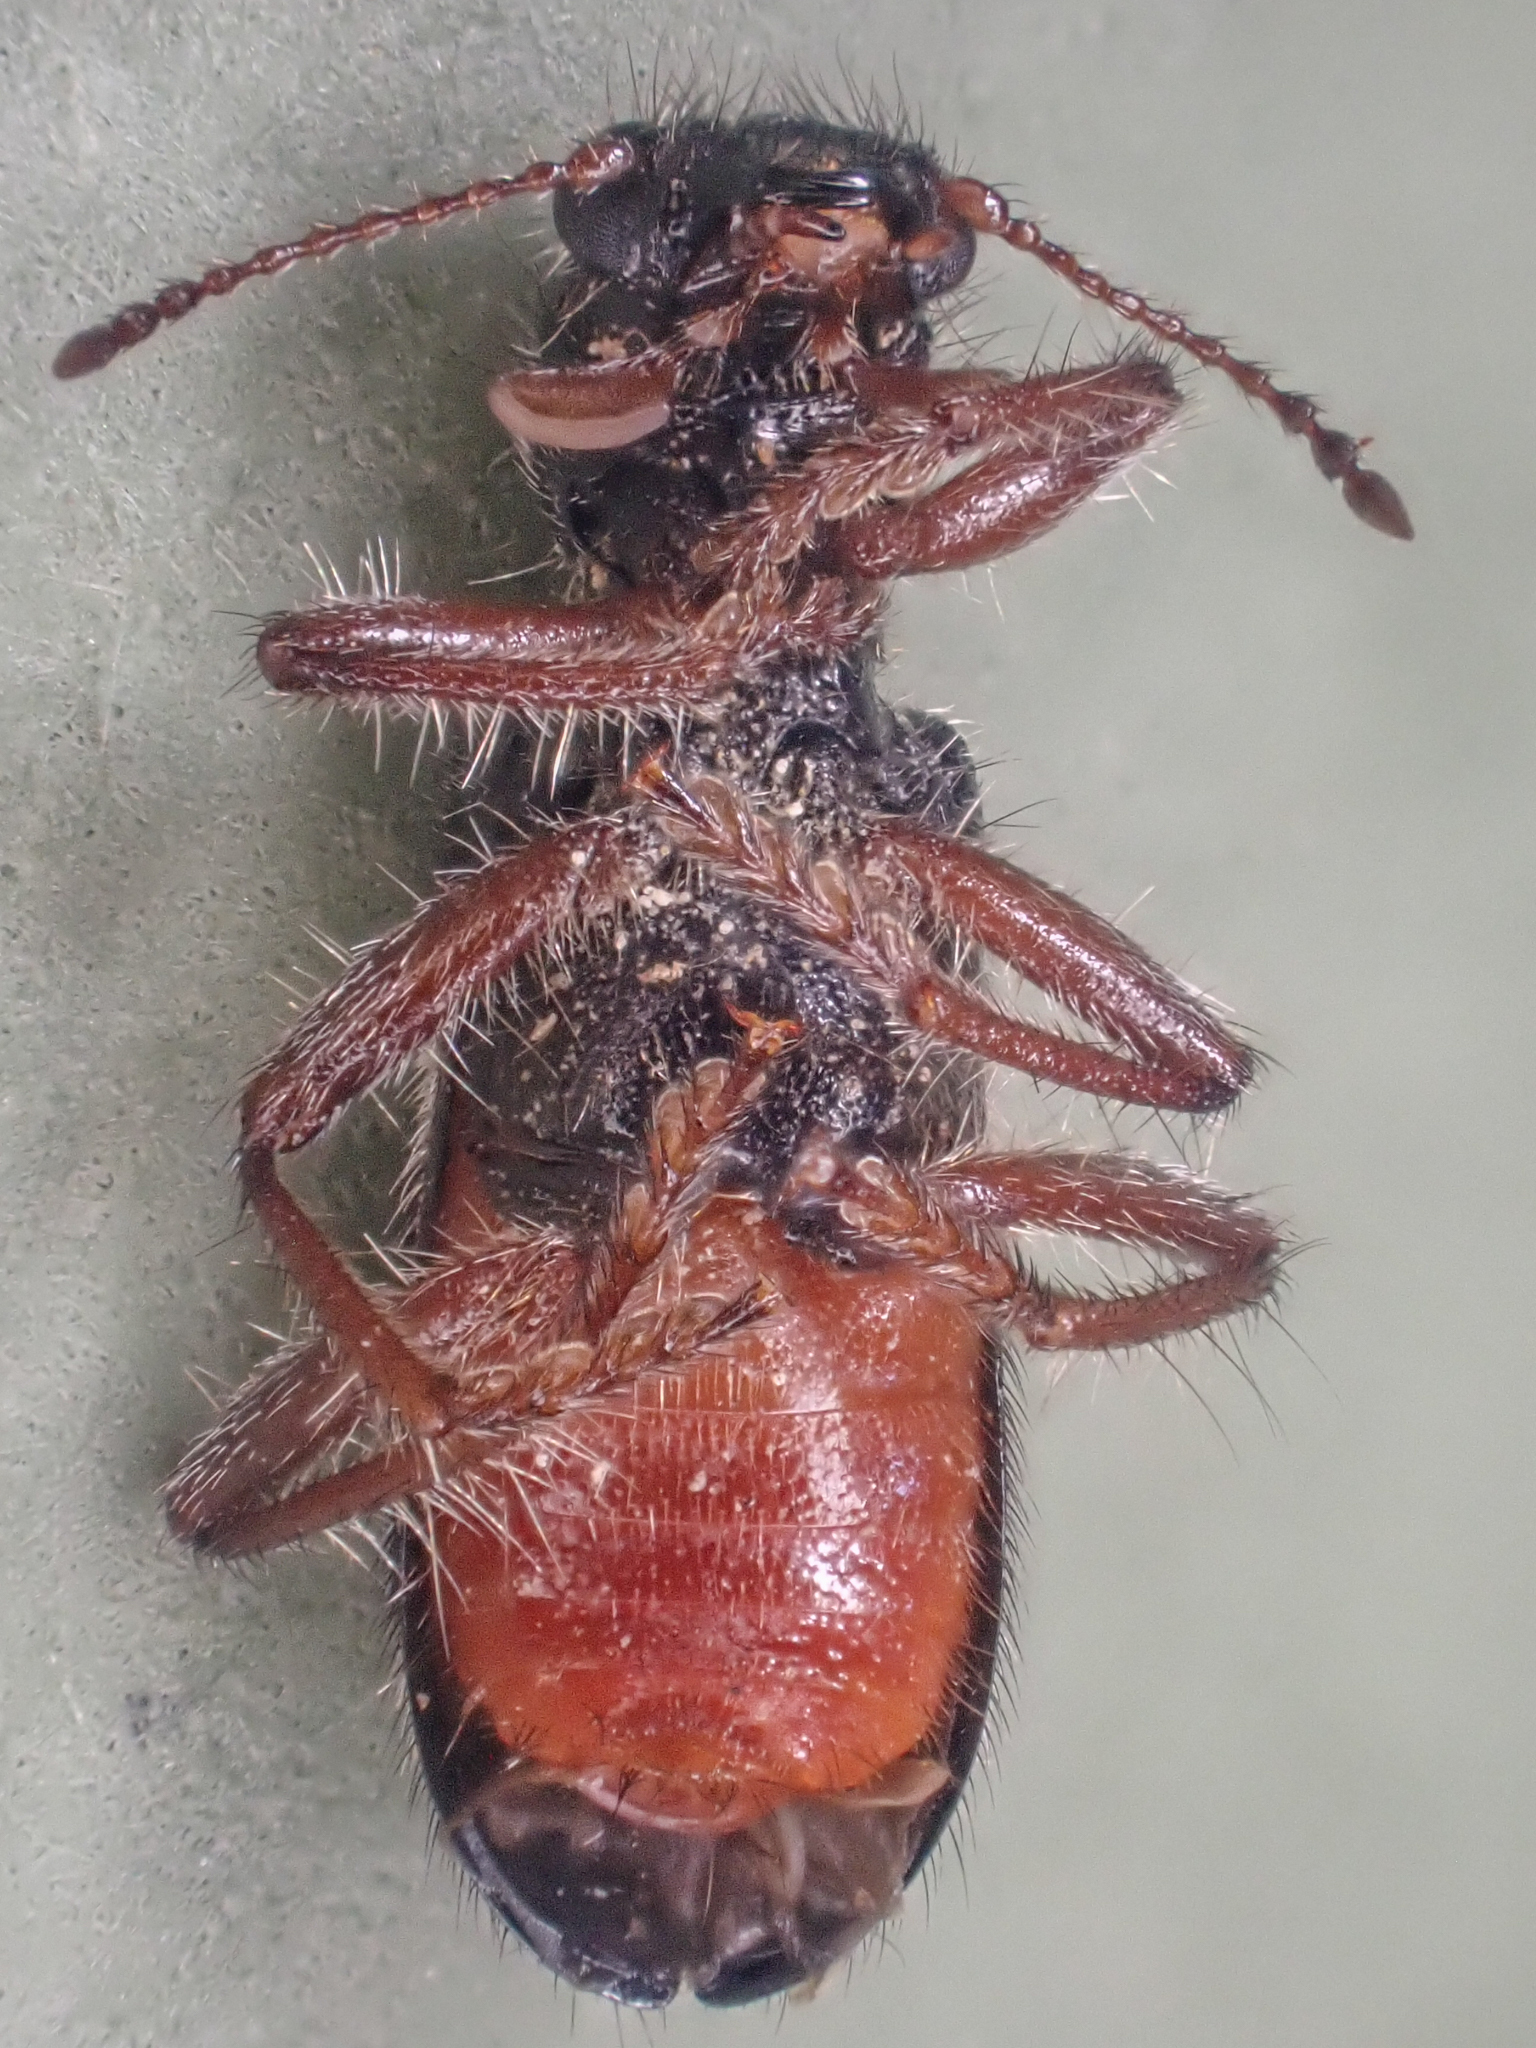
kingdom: Animalia
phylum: Arthropoda
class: Insecta
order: Coleoptera
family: Cleridae
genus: Thanasimus
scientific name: Thanasimus undatulus
